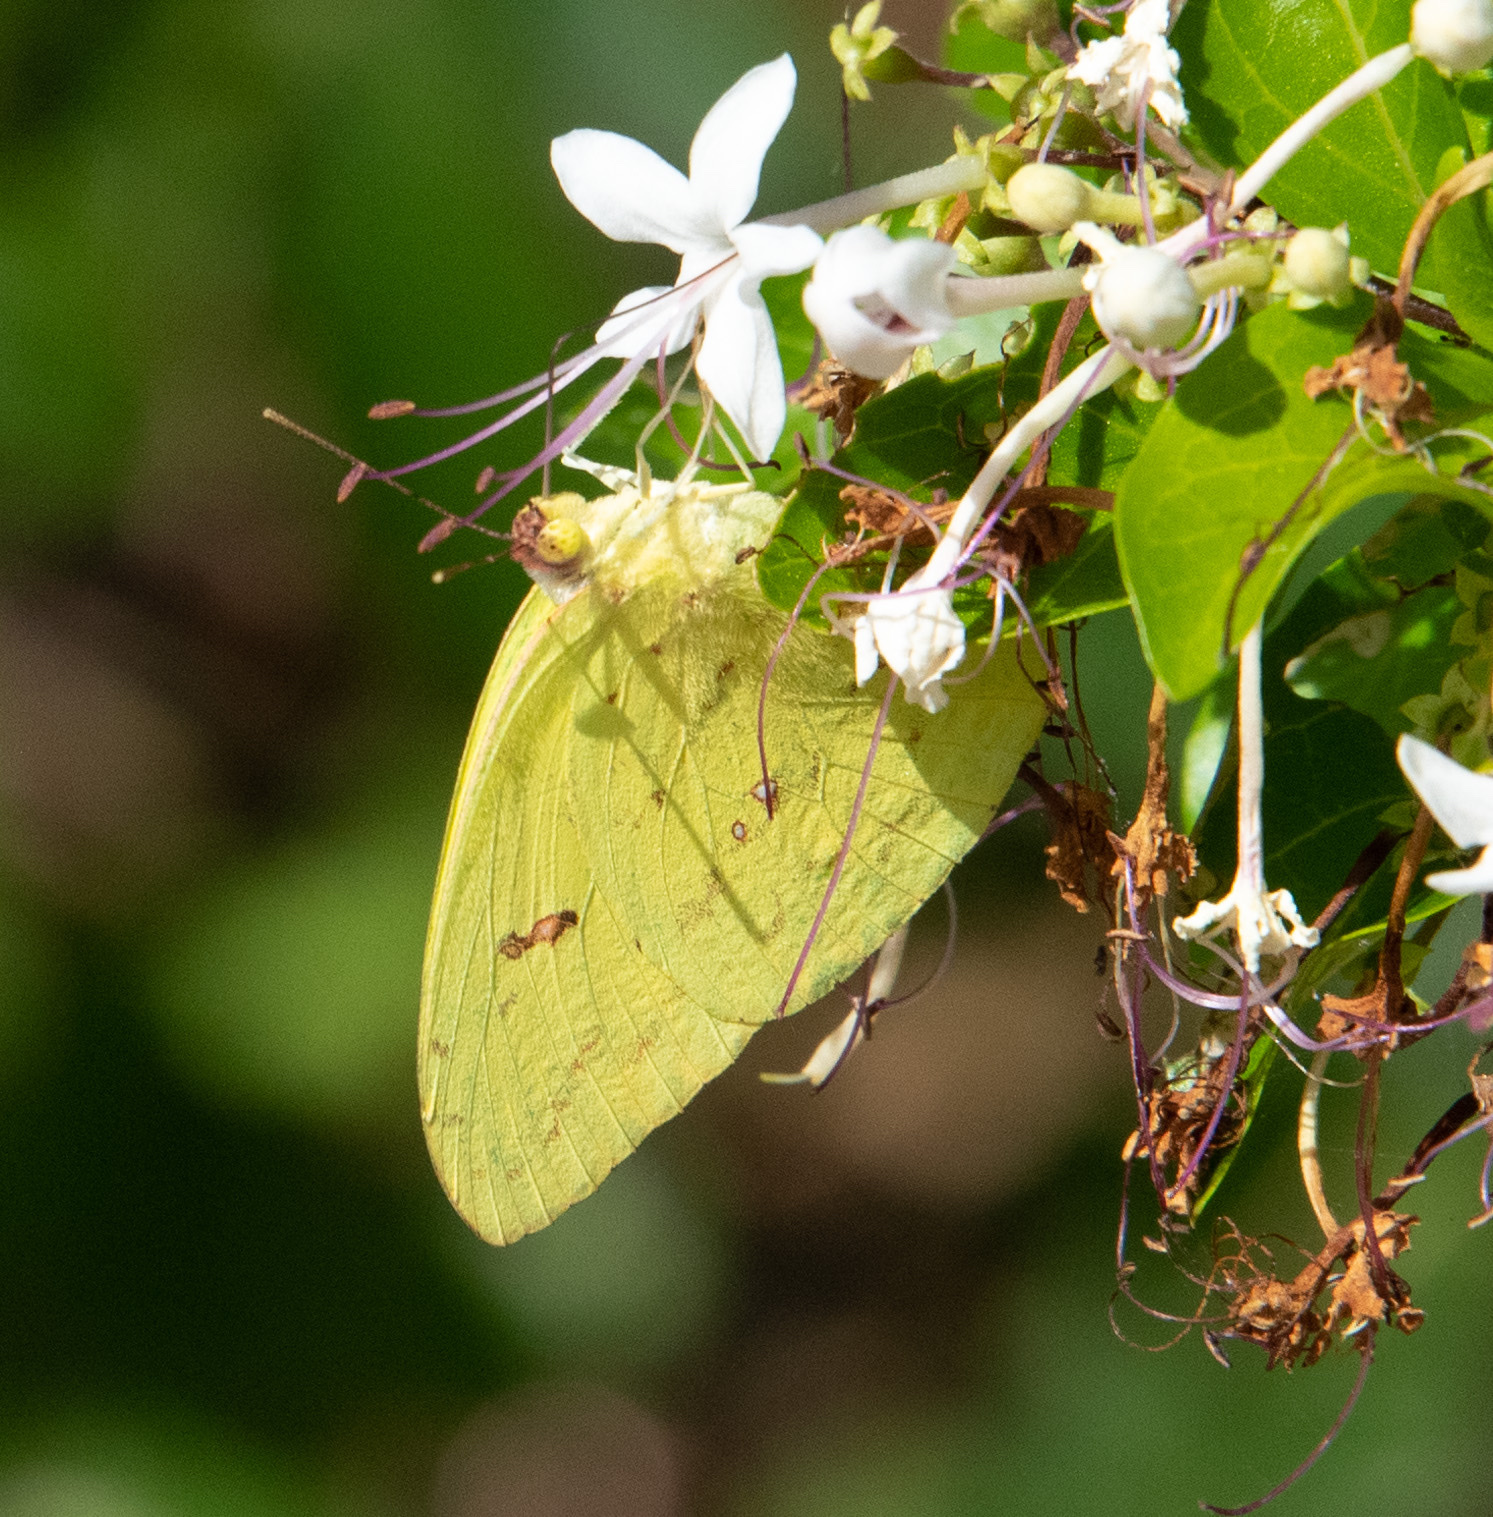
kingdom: Animalia
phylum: Arthropoda
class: Insecta
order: Lepidoptera
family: Pieridae
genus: Phoebis
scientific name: Phoebis sennae
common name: Cloudless sulphur
